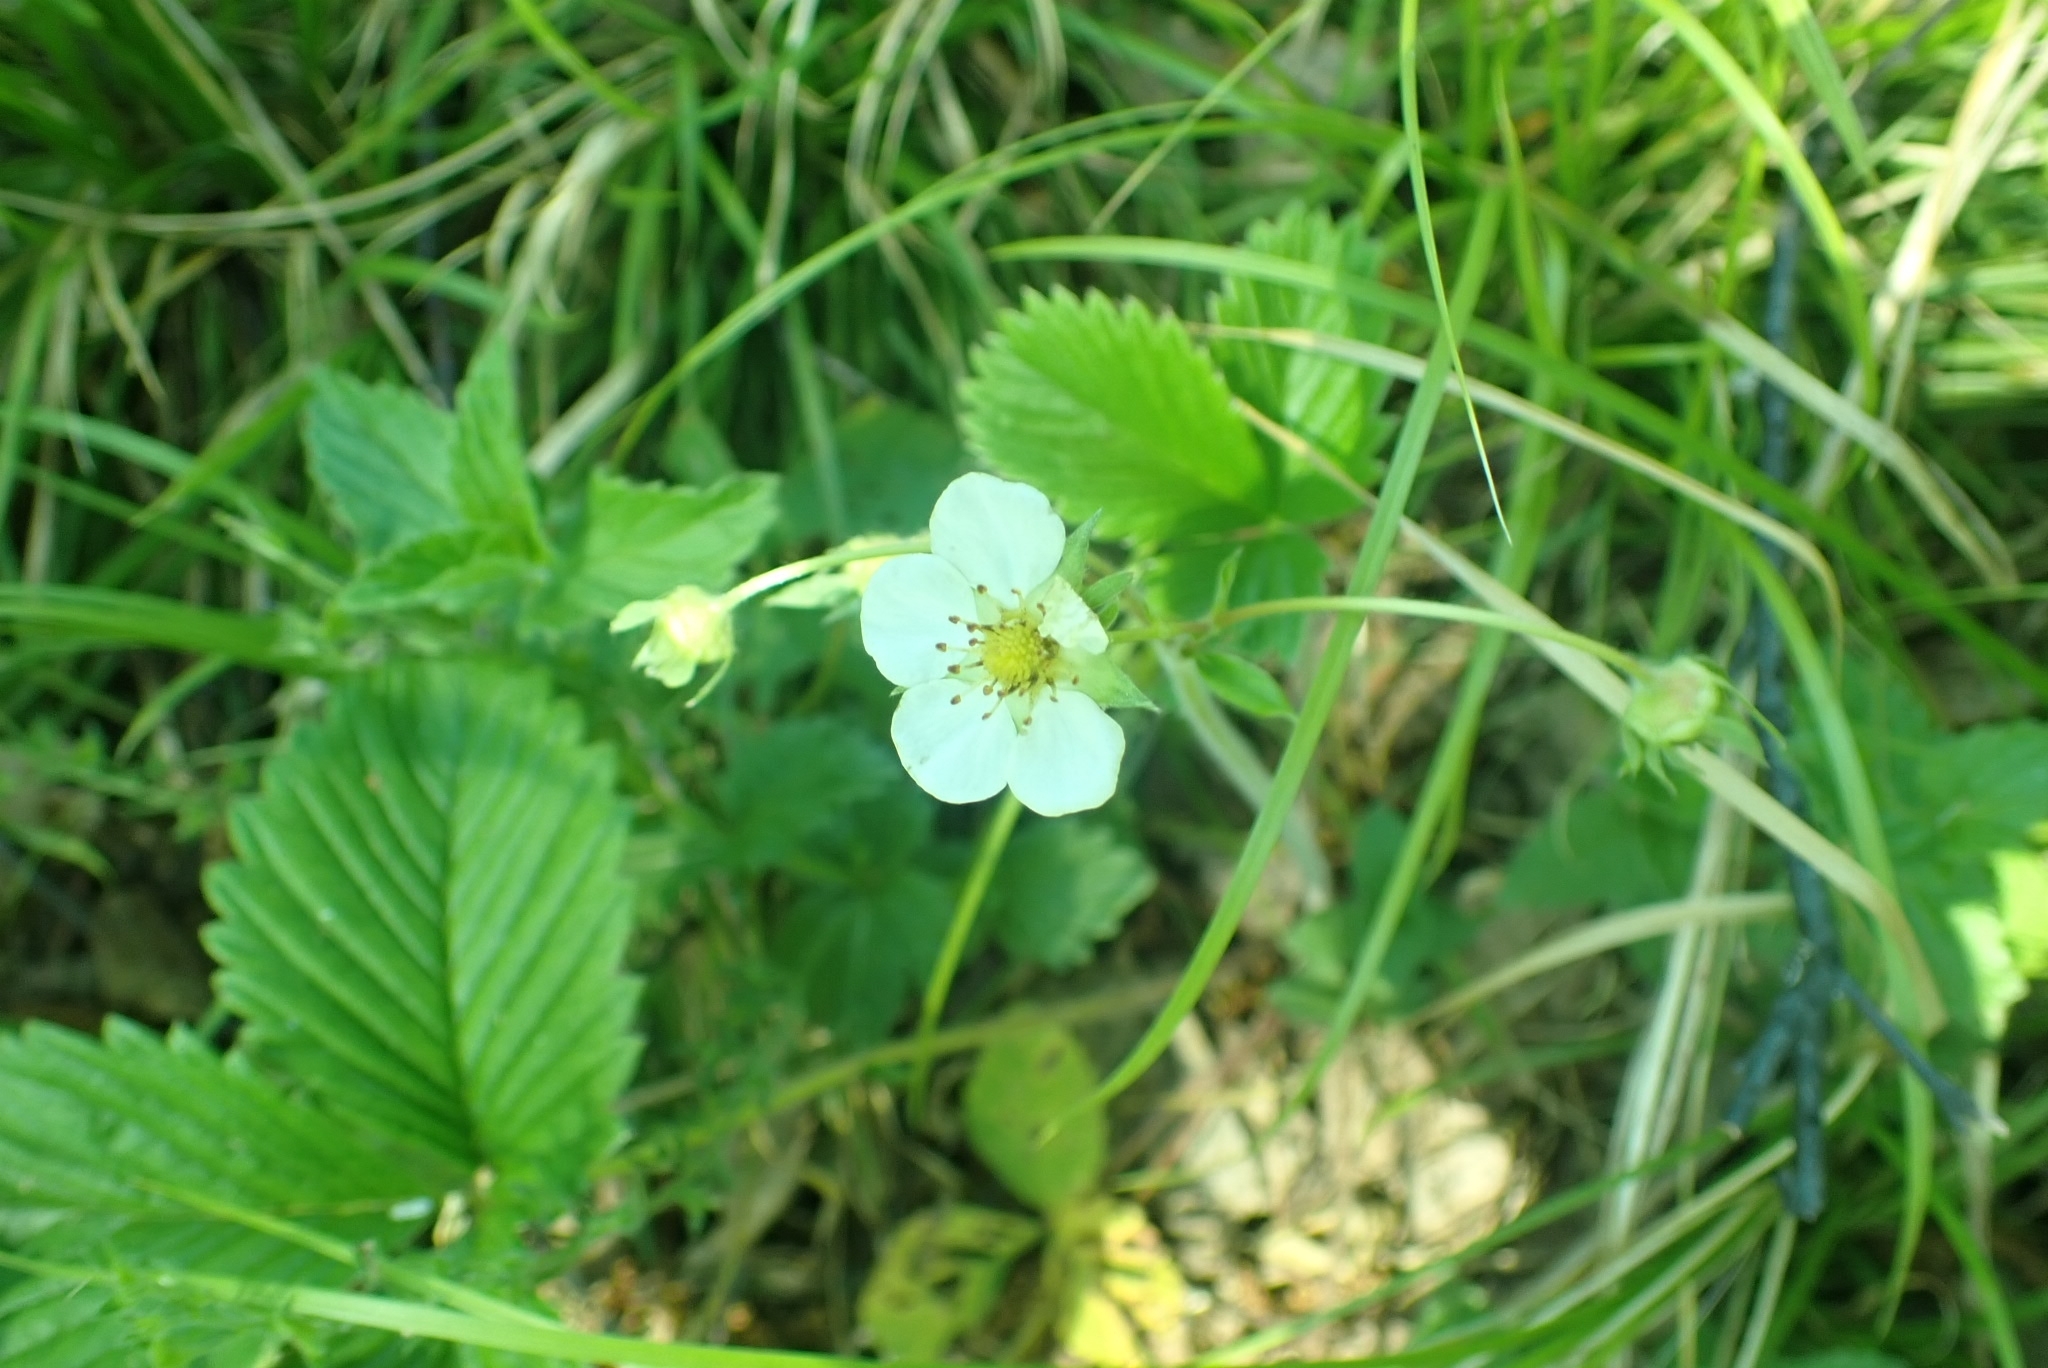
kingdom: Plantae
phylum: Tracheophyta
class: Magnoliopsida
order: Rosales
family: Rosaceae
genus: Fragaria
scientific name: Fragaria viridis
